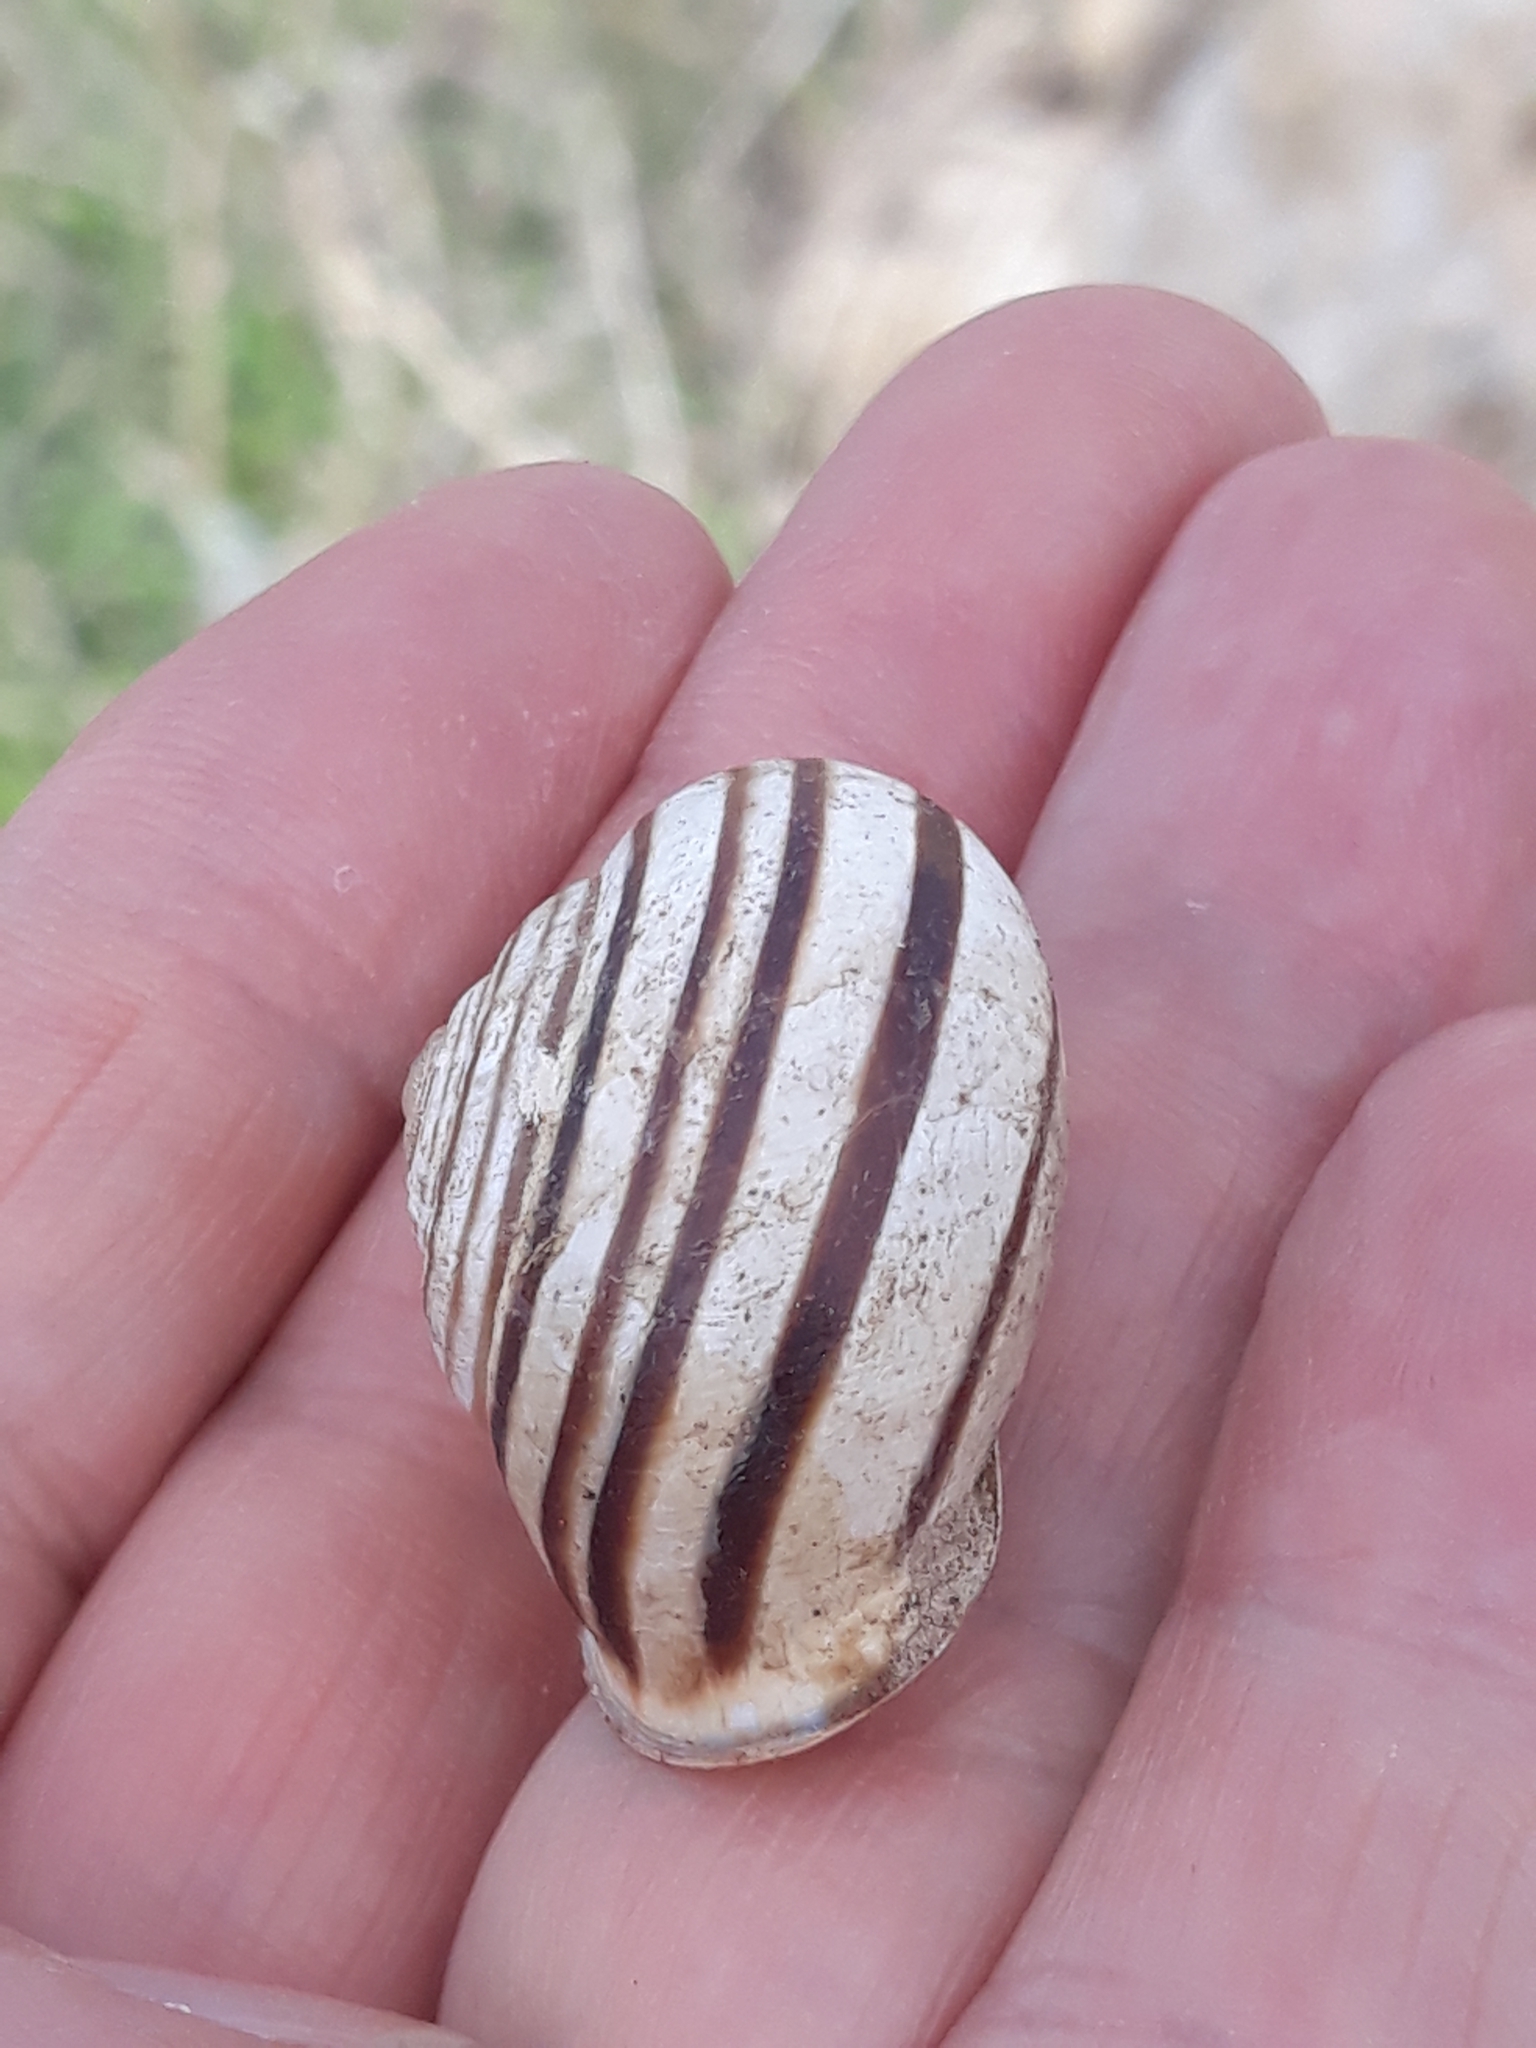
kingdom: Animalia
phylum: Mollusca
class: Gastropoda
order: Stylommatophora
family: Helicidae
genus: Eobania
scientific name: Eobania constantina
